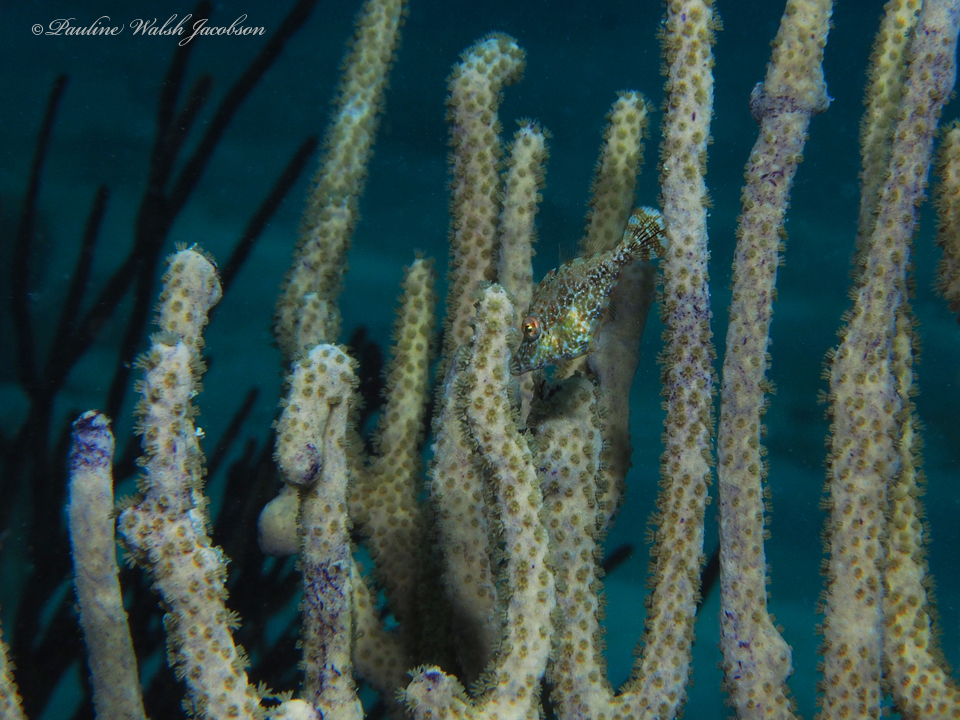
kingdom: Animalia
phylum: Chordata
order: Tetraodontiformes
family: Monacanthidae
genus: Monacanthus
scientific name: Monacanthus tuckeri
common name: Slender filefish
